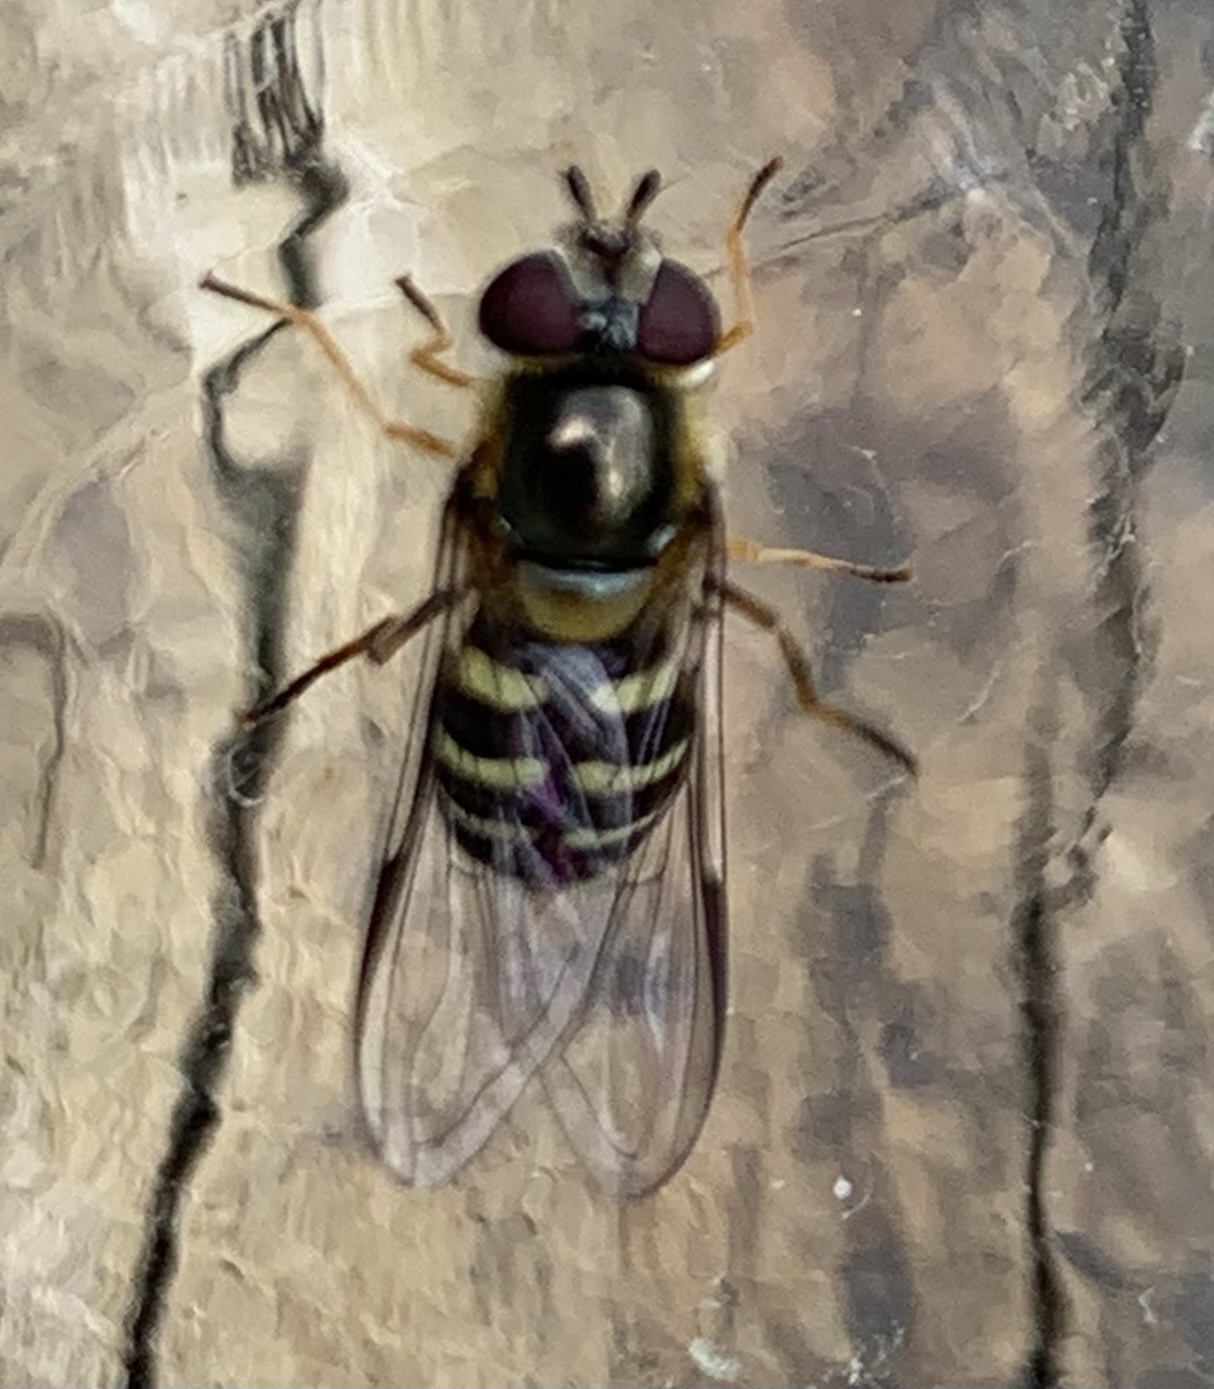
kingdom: Animalia
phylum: Arthropoda
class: Insecta
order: Diptera
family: Syrphidae
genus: Lapposyrphus
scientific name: Lapposyrphus lapponicus
